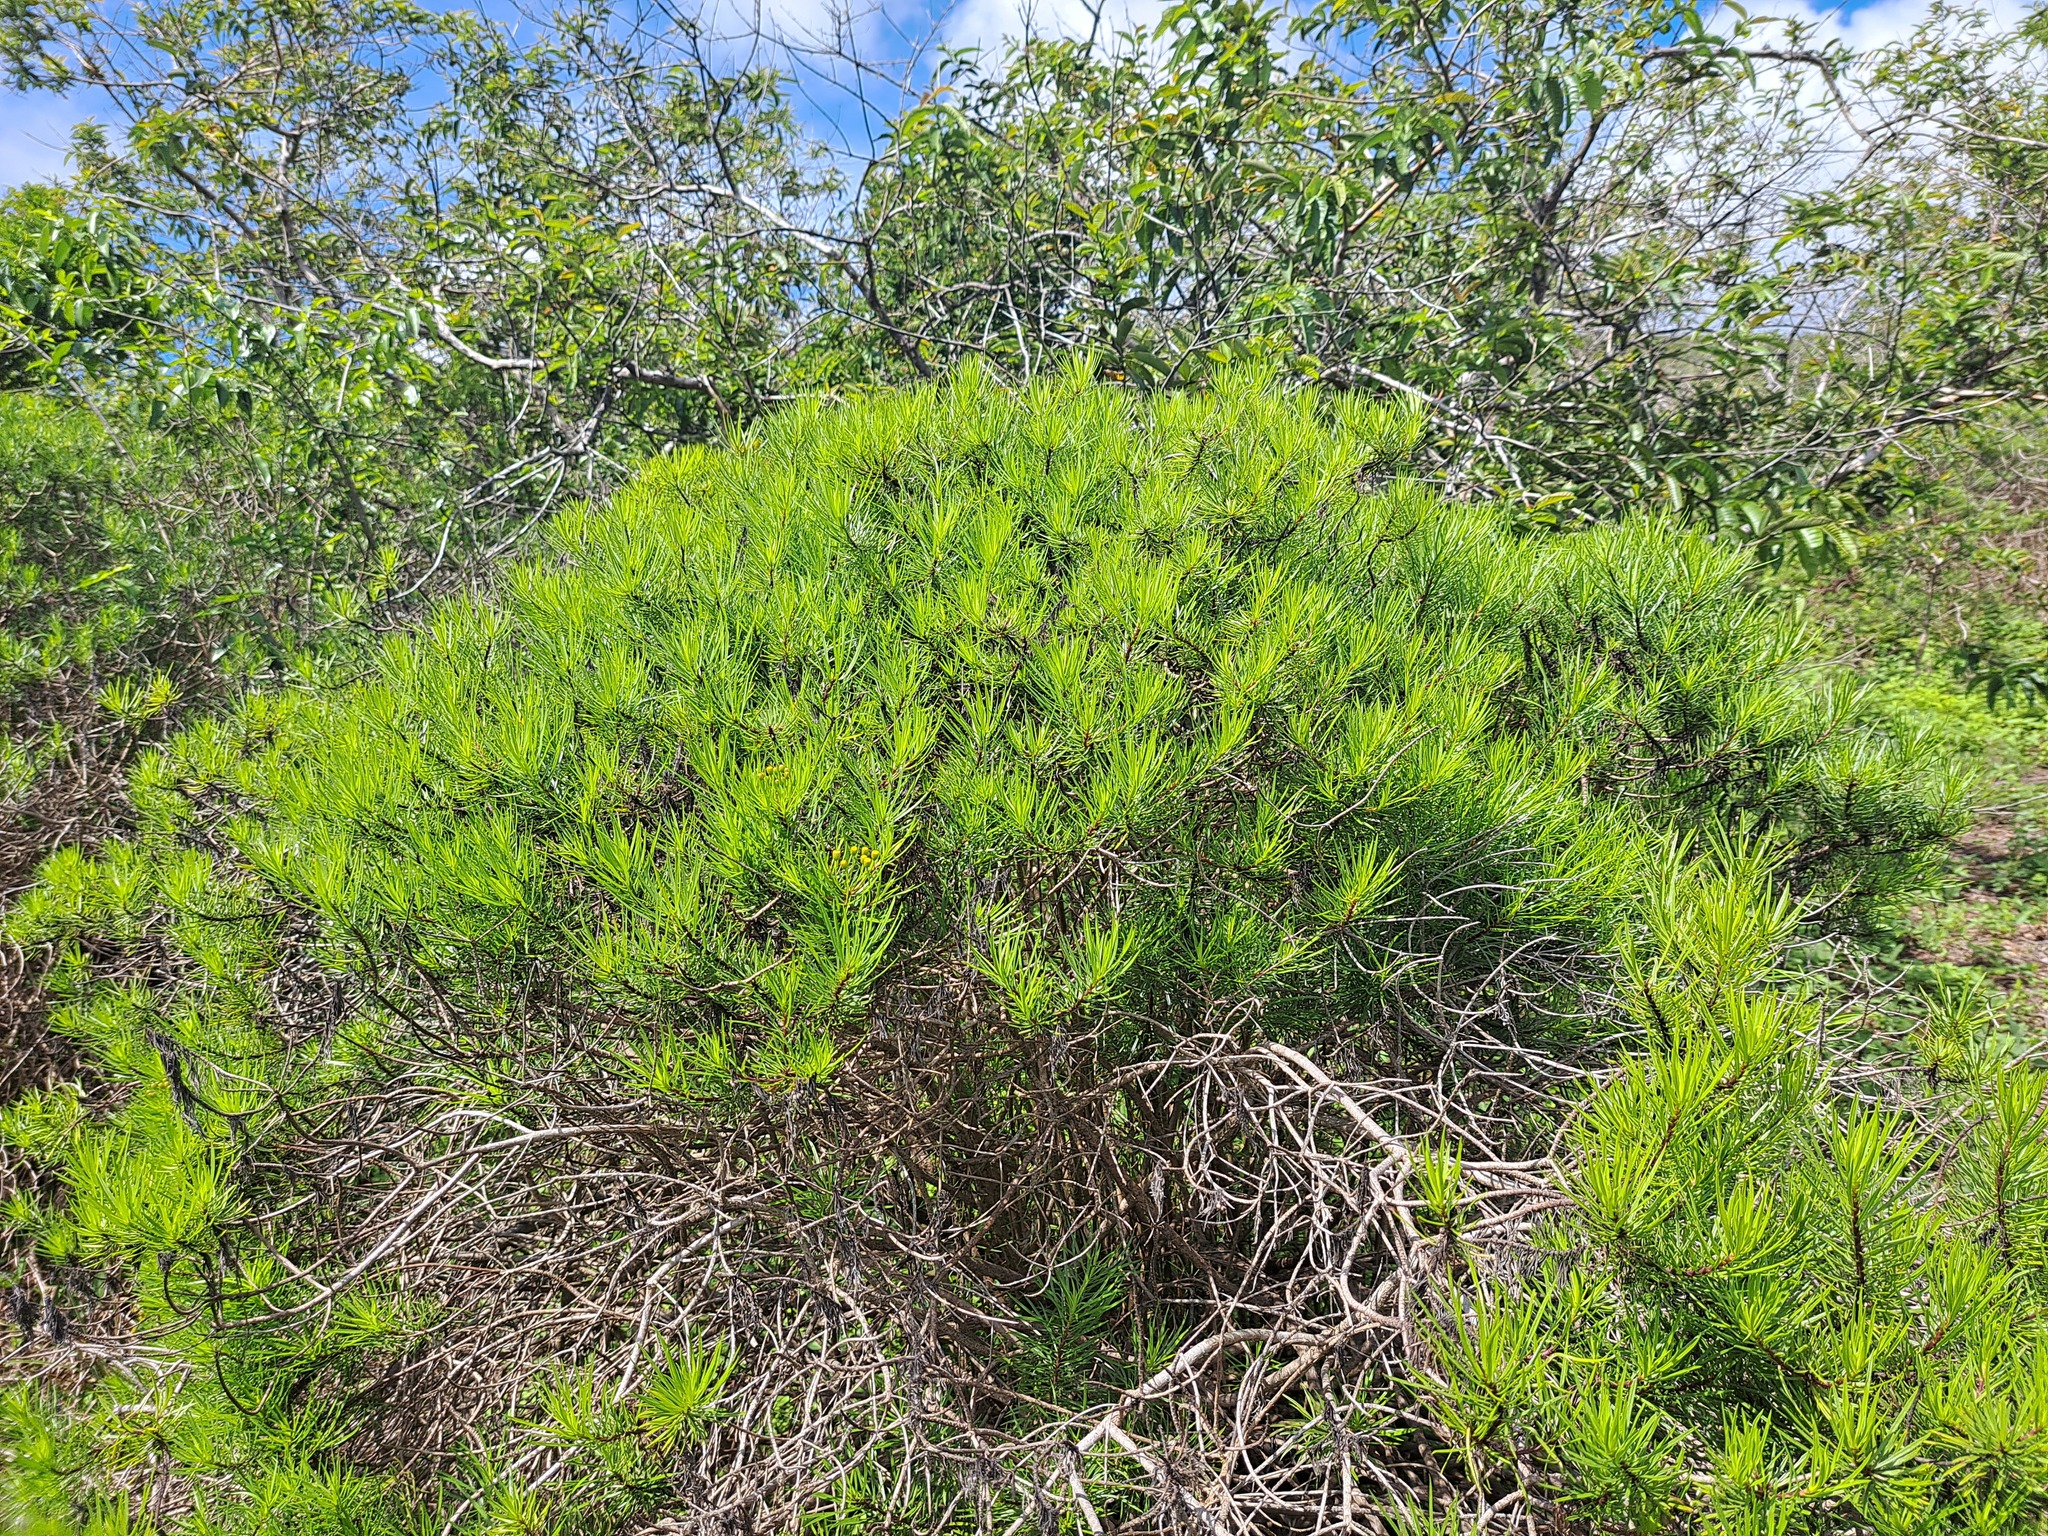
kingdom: Plantae
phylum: Tracheophyta
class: Magnoliopsida
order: Asterales
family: Asteraceae
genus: Erigeron
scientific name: Erigeron tenuifolius
